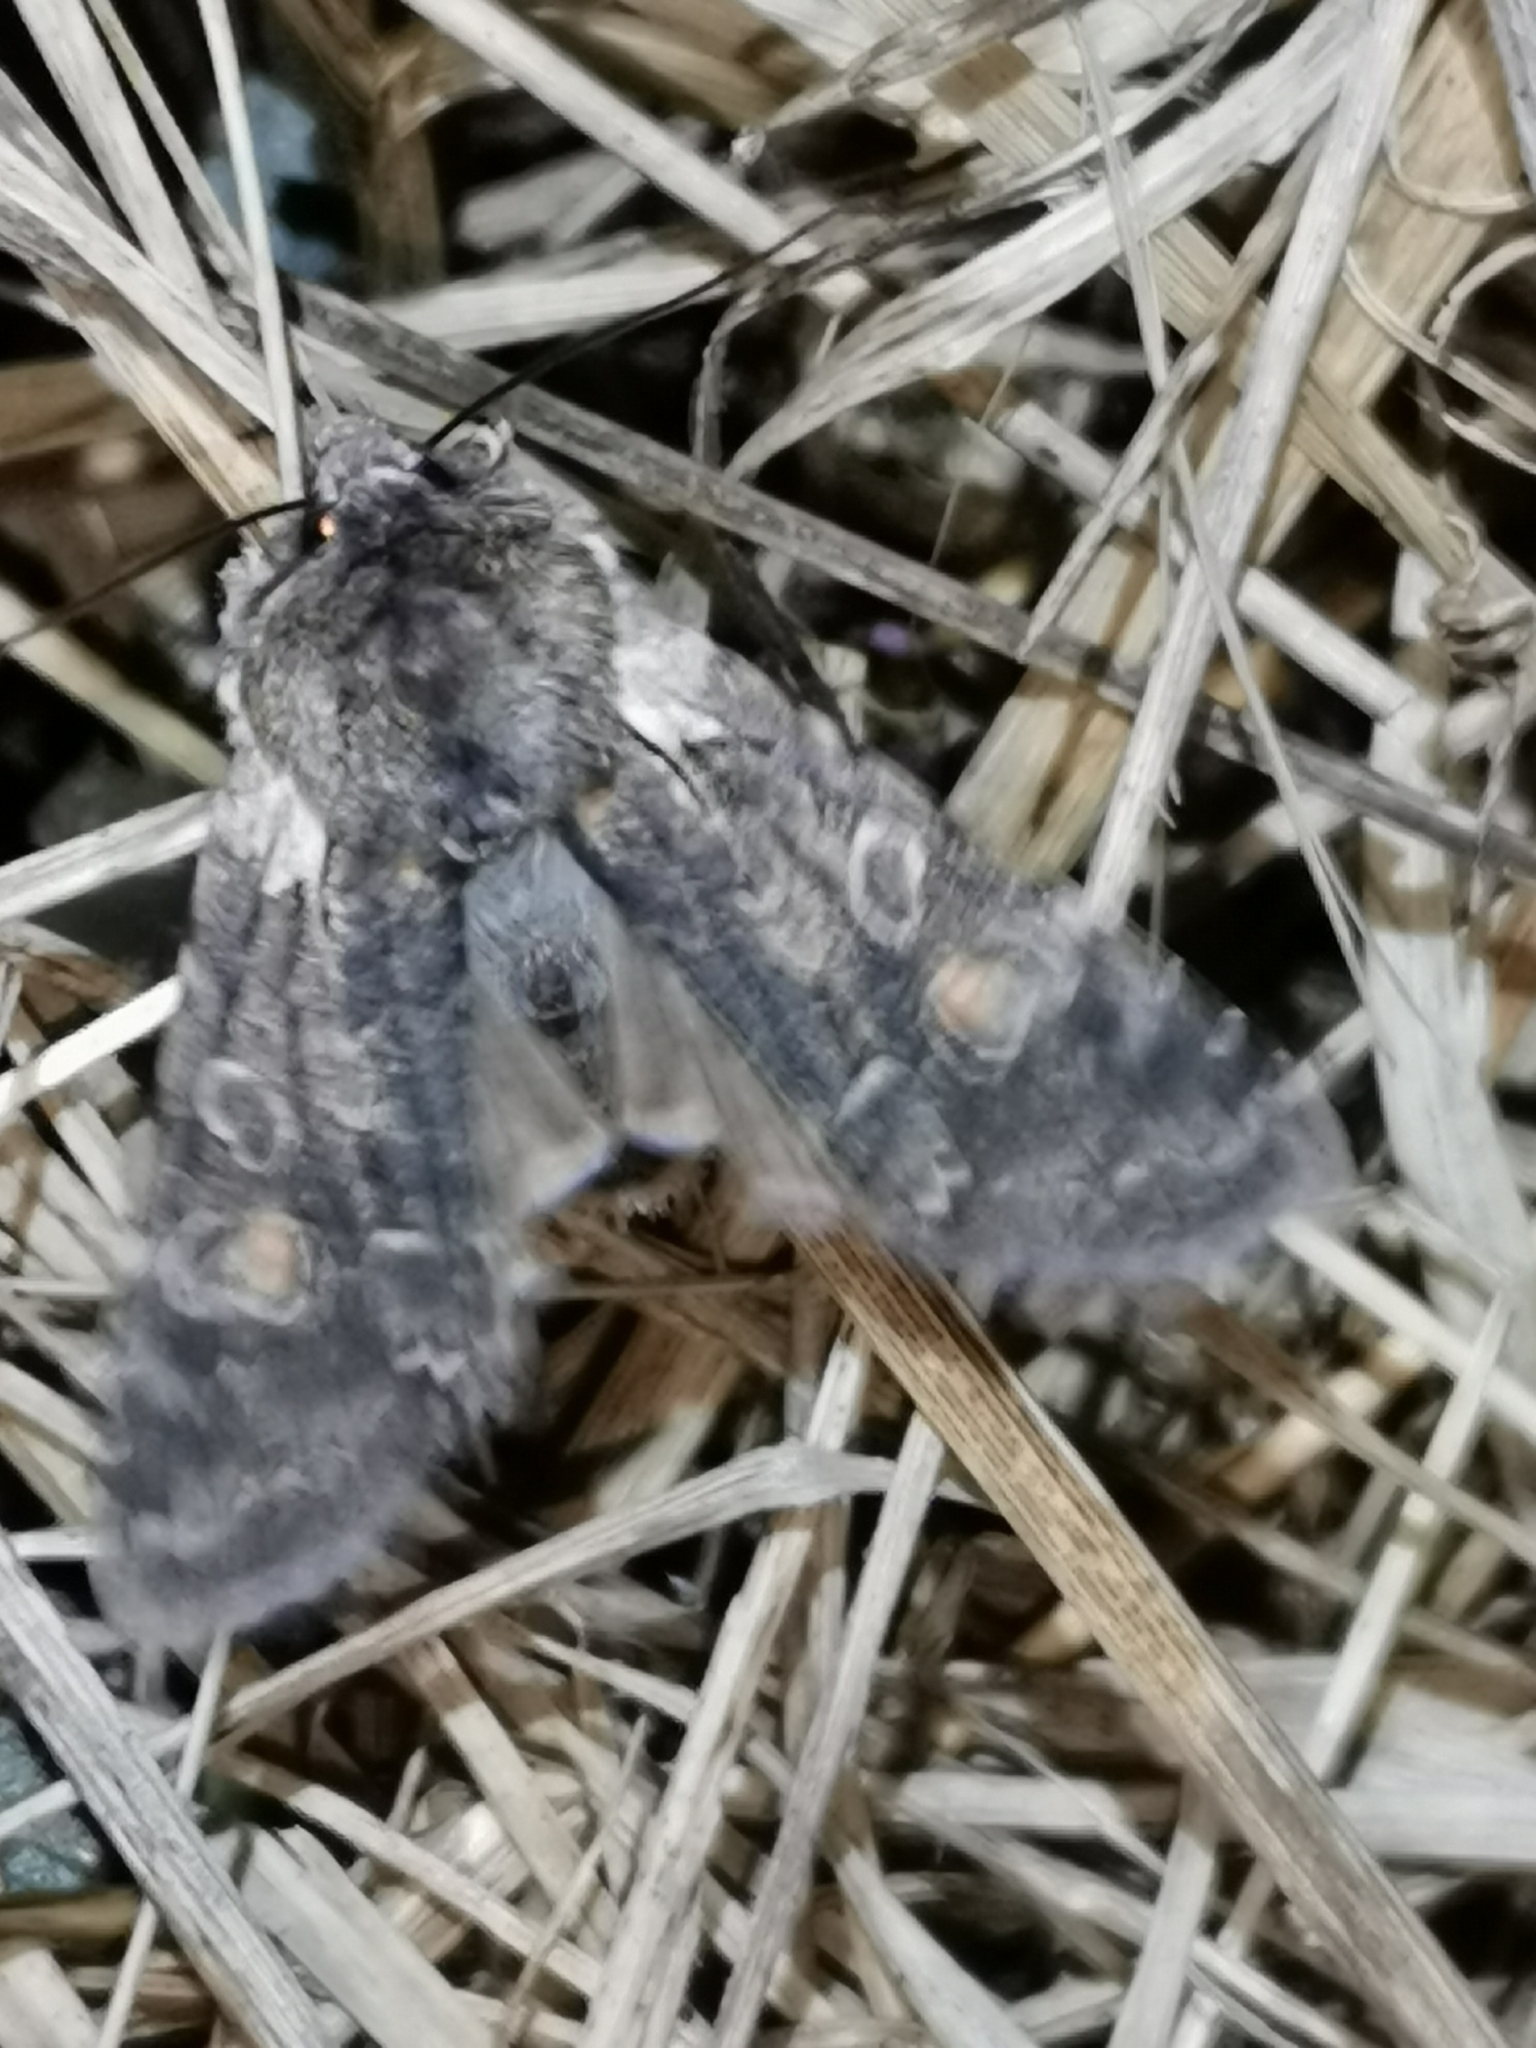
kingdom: Animalia
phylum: Arthropoda
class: Insecta
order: Lepidoptera
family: Noctuidae
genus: Lithophane
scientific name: Lithophane consocia
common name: Softly's shoulder-knot
